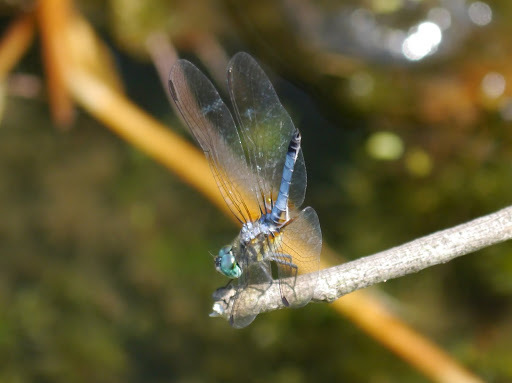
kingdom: Animalia
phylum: Arthropoda
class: Insecta
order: Odonata
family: Libellulidae
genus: Pachydiplax
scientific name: Pachydiplax longipennis
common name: Blue dasher
